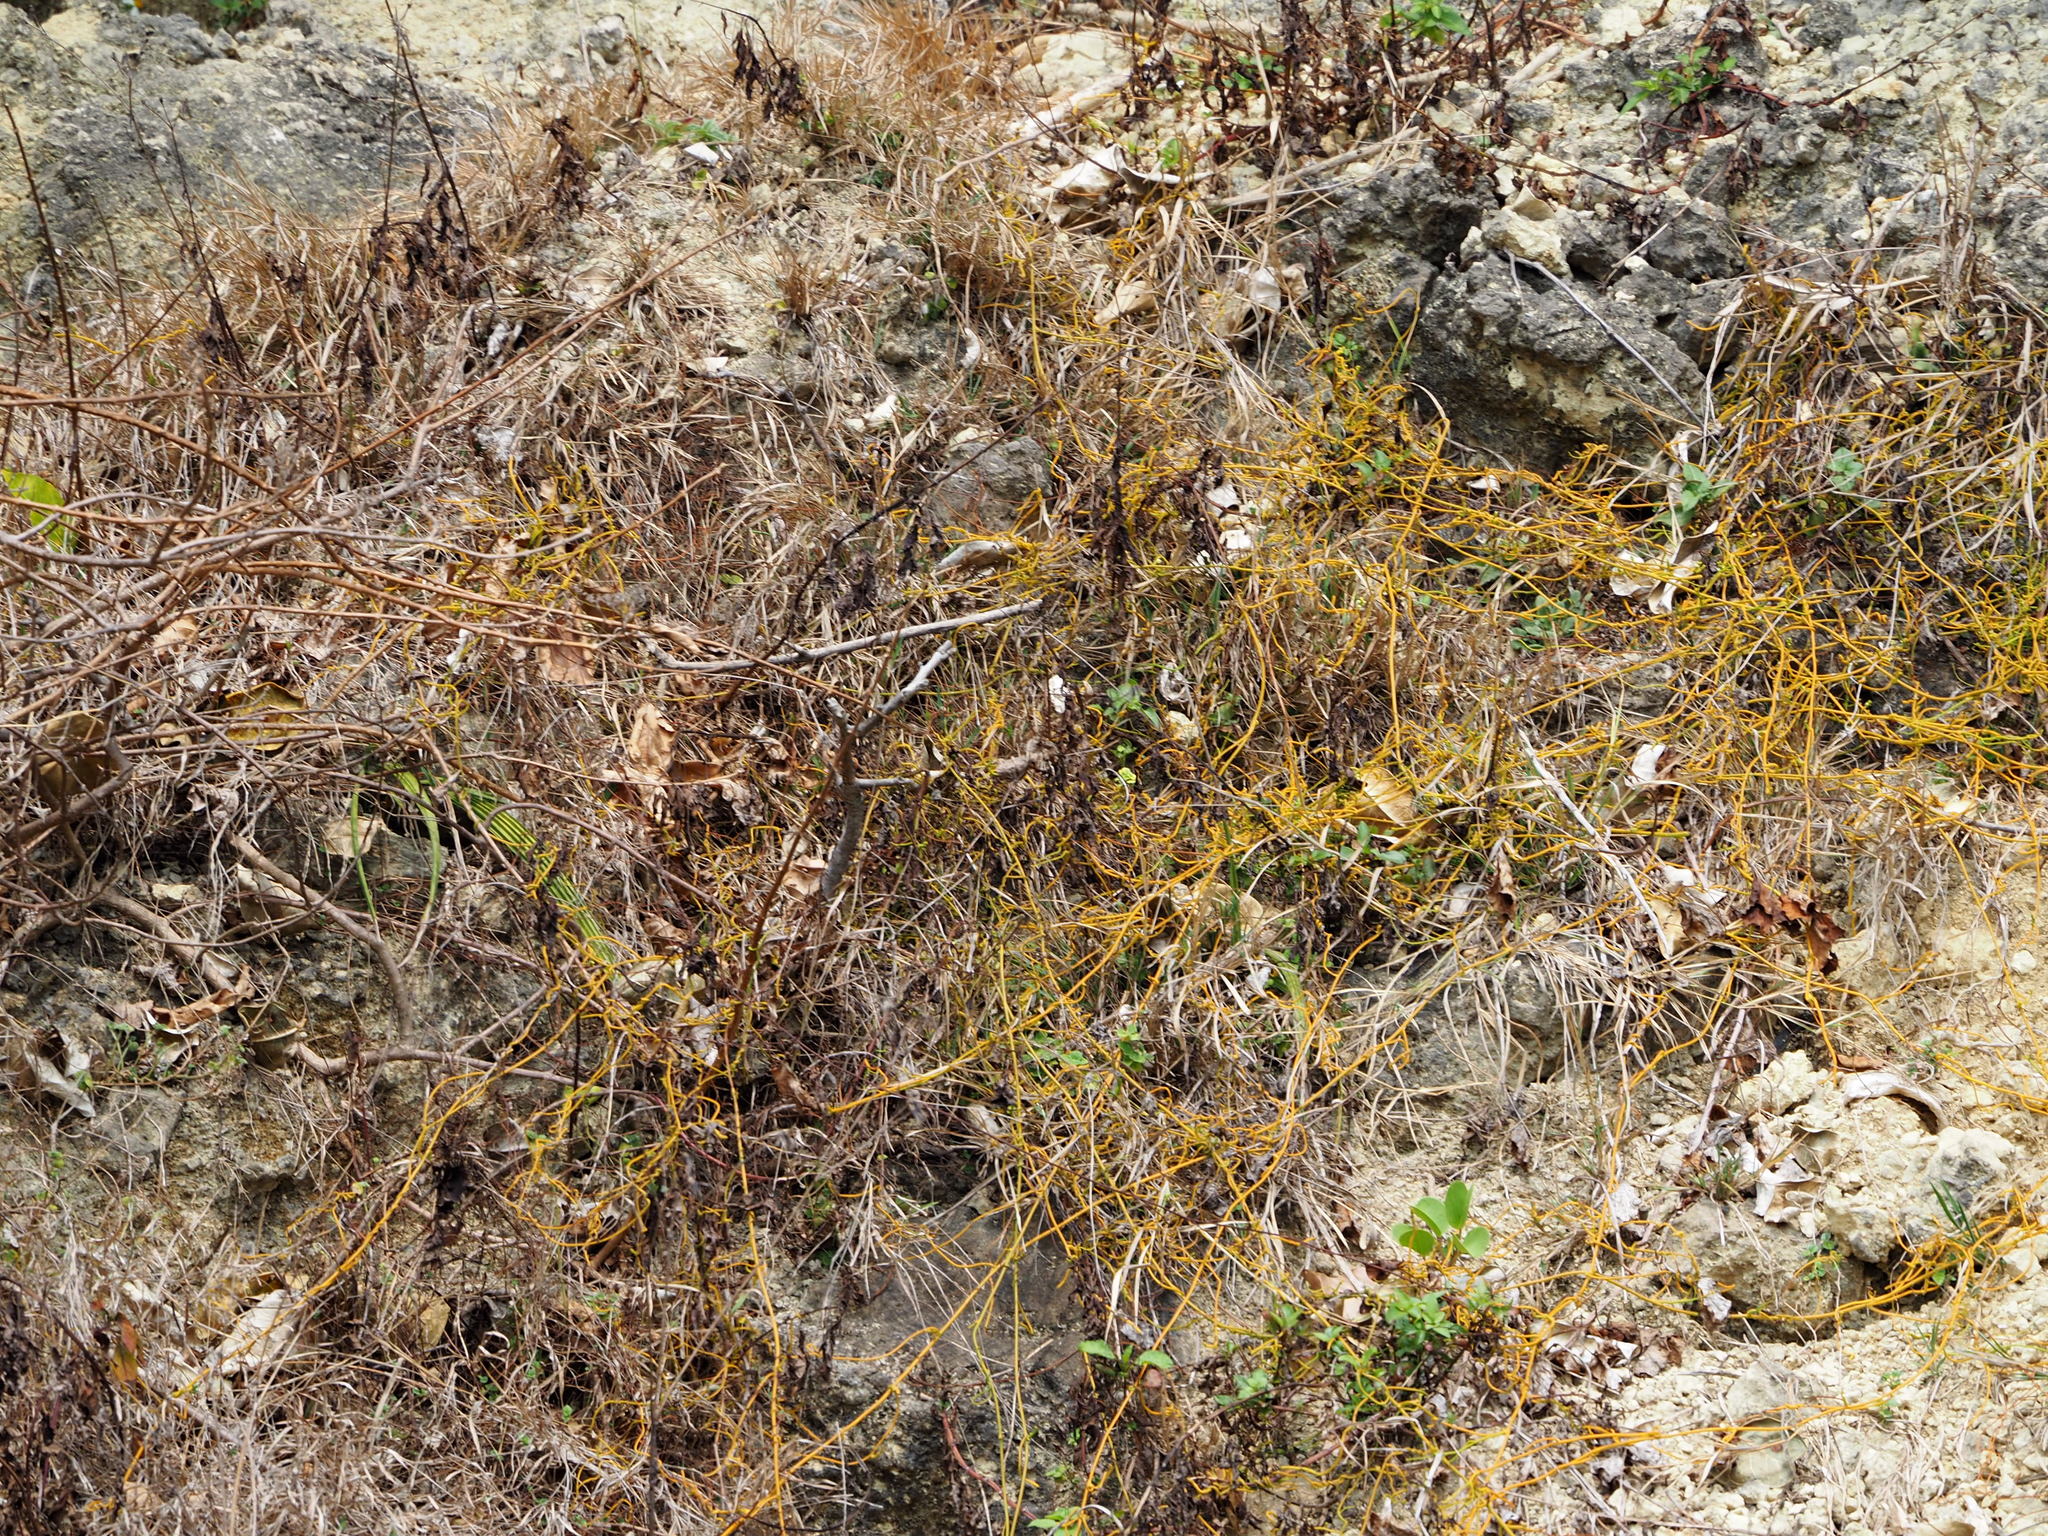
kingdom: Plantae
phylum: Tracheophyta
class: Magnoliopsida
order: Laurales
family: Lauraceae
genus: Cassytha
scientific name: Cassytha filiformis
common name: Dodder-laurel
